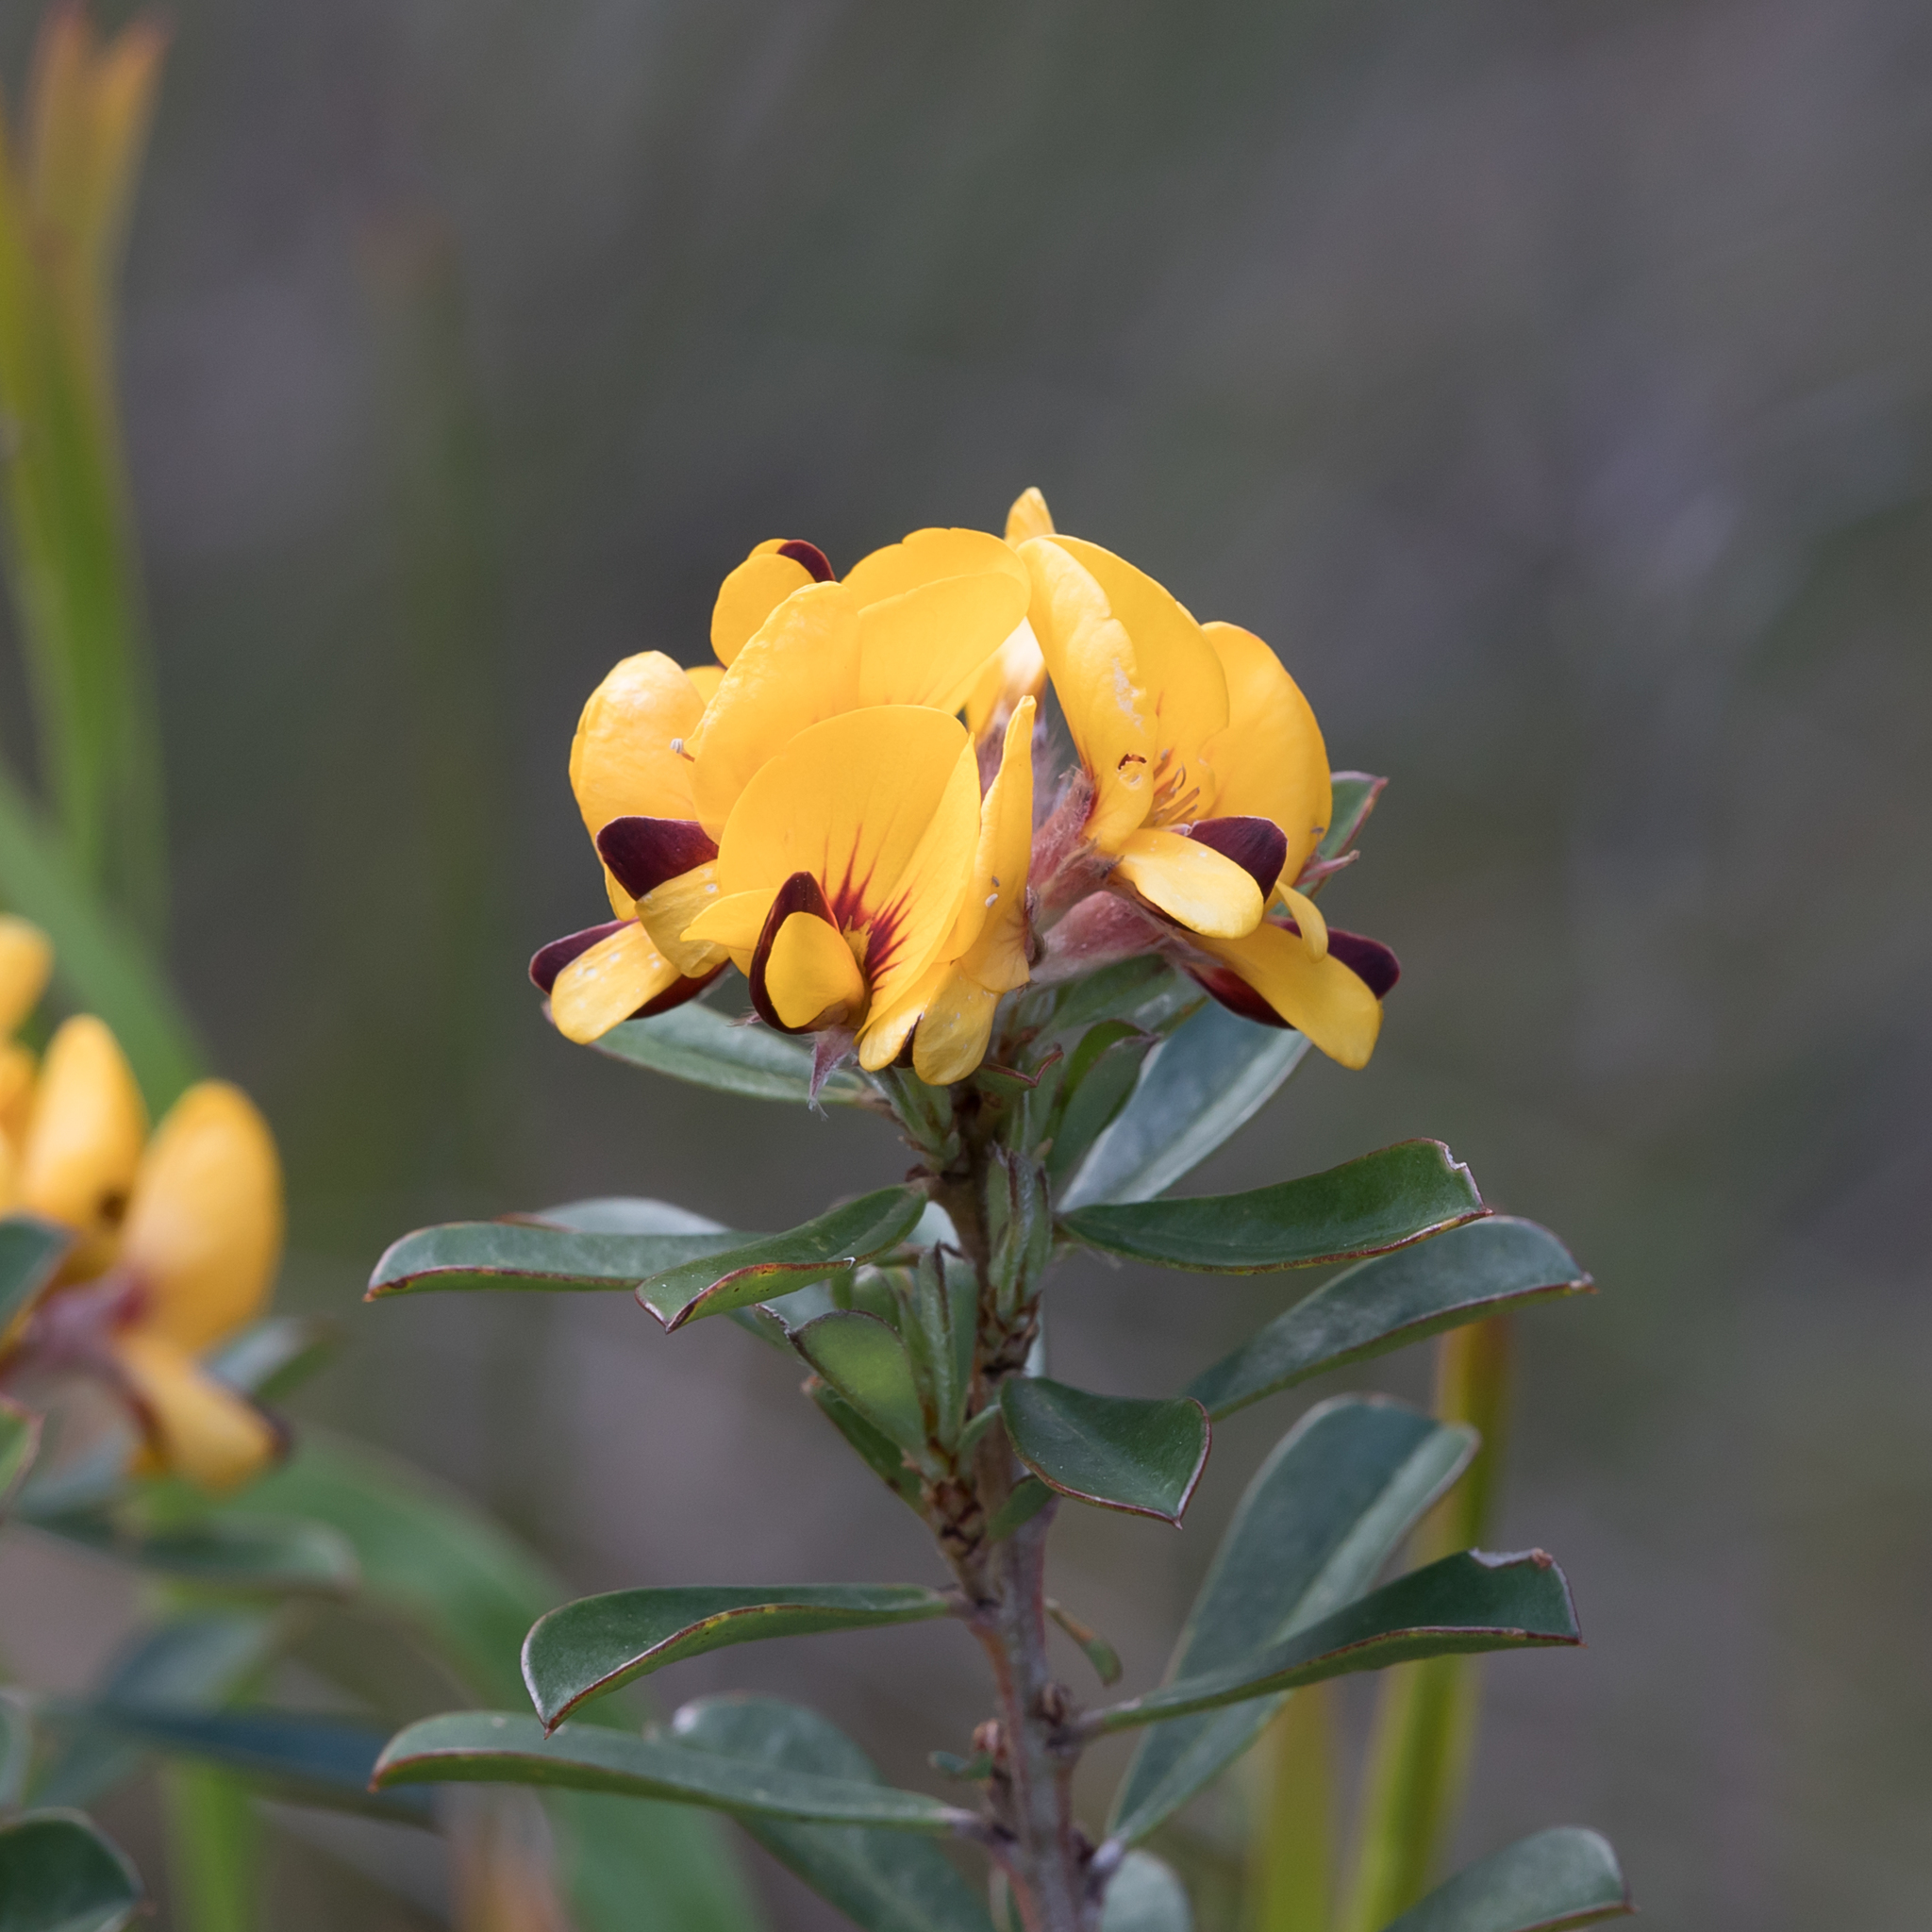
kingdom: Plantae
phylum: Tracheophyta
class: Magnoliopsida
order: Fabales
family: Fabaceae
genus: Pultenaea
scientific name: Pultenaea daphnoides
